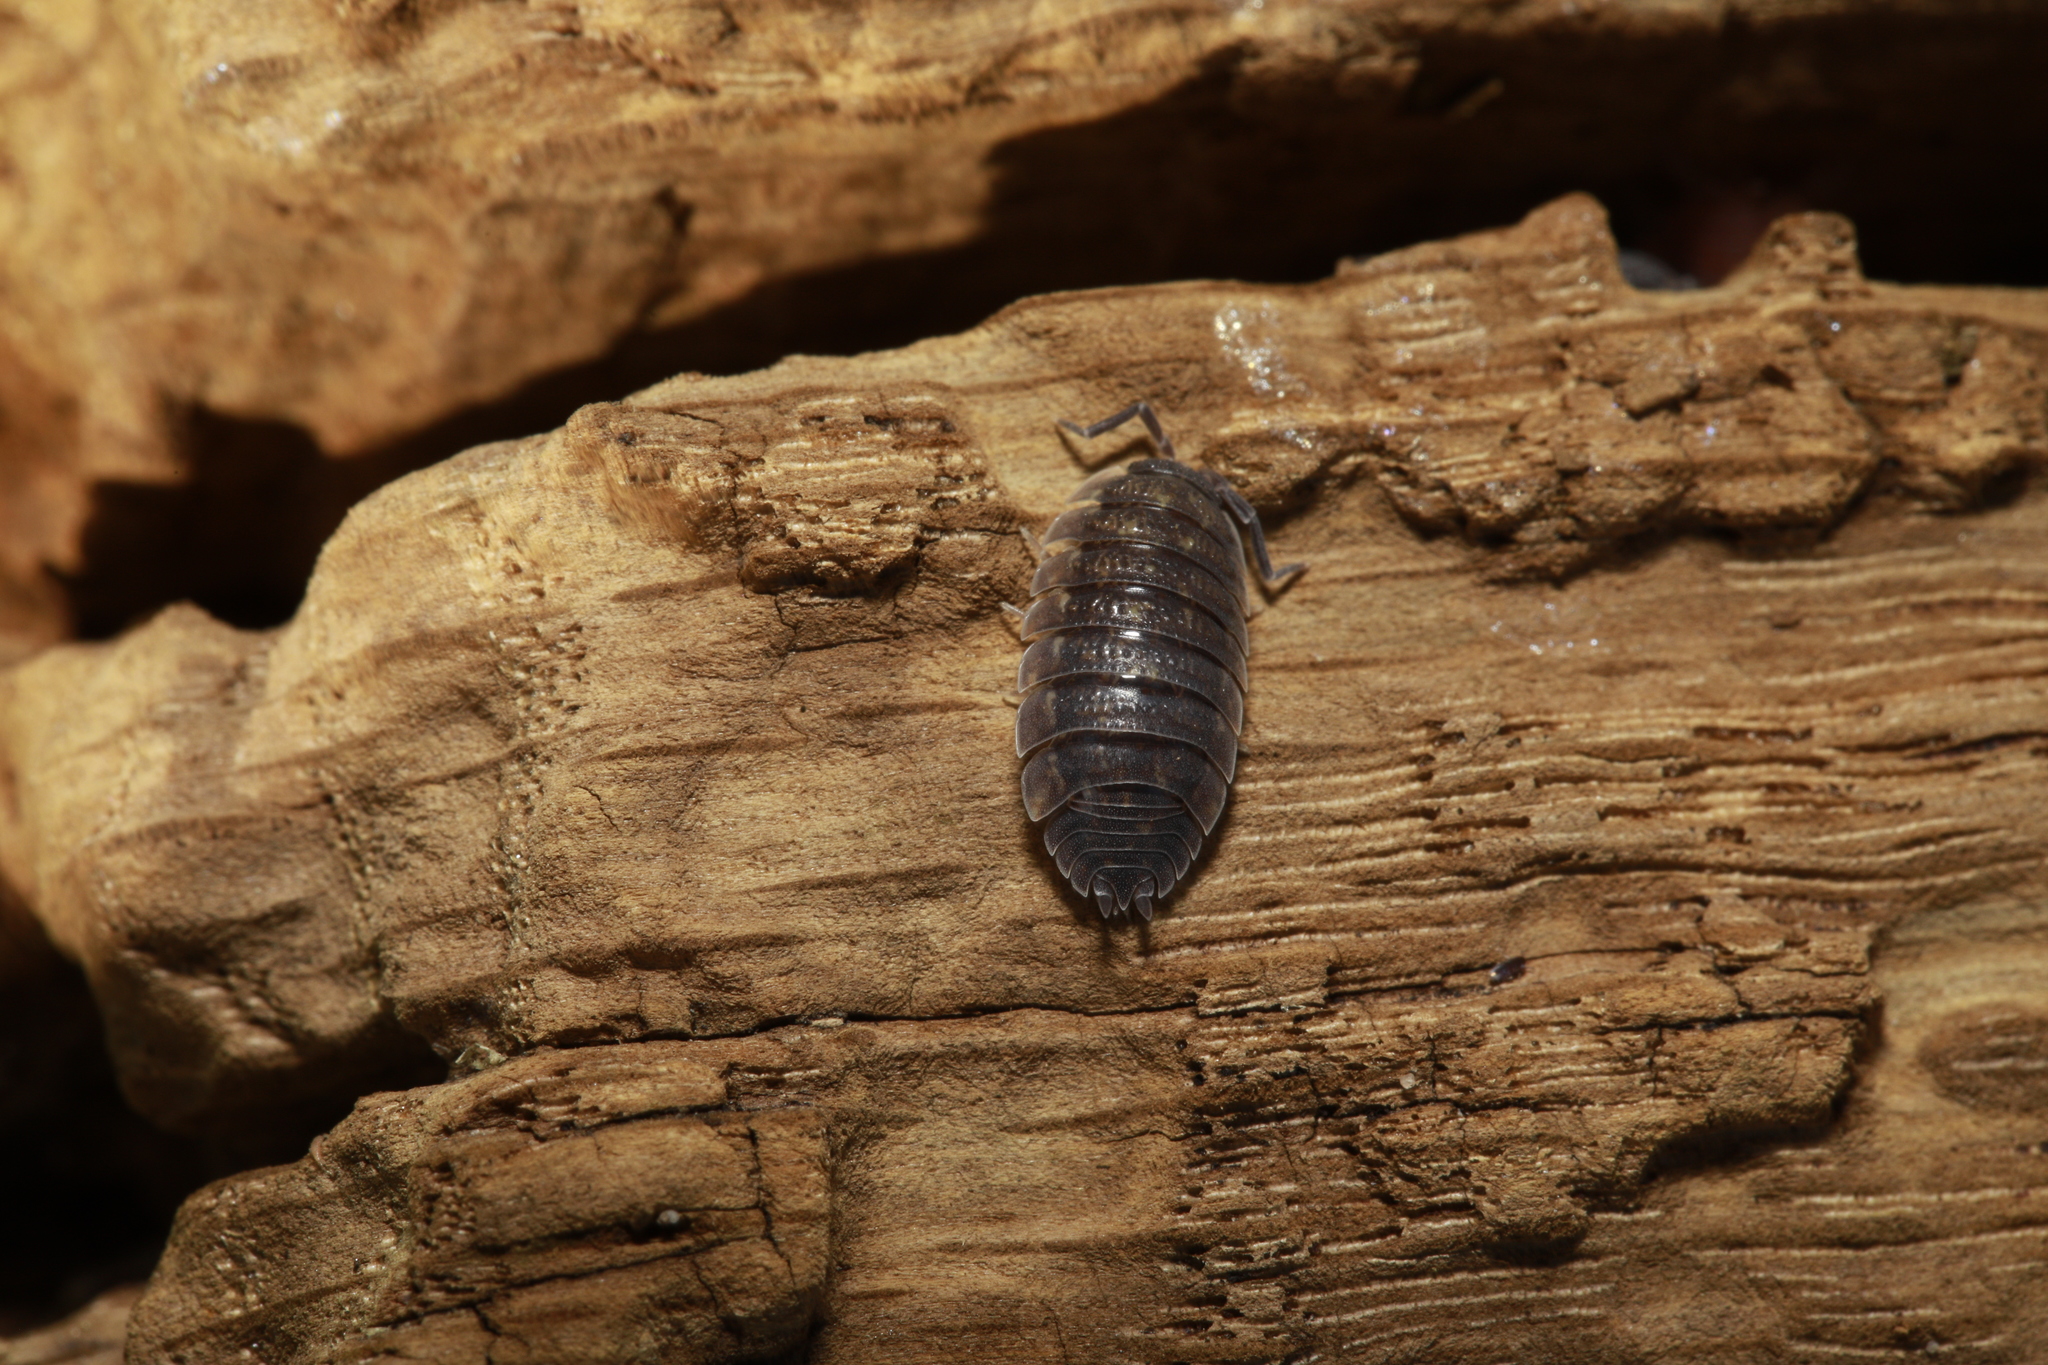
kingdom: Animalia
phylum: Arthropoda
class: Malacostraca
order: Isopoda
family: Porcellionidae
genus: Porcellio
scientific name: Porcellio scaber
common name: Common rough woodlouse
